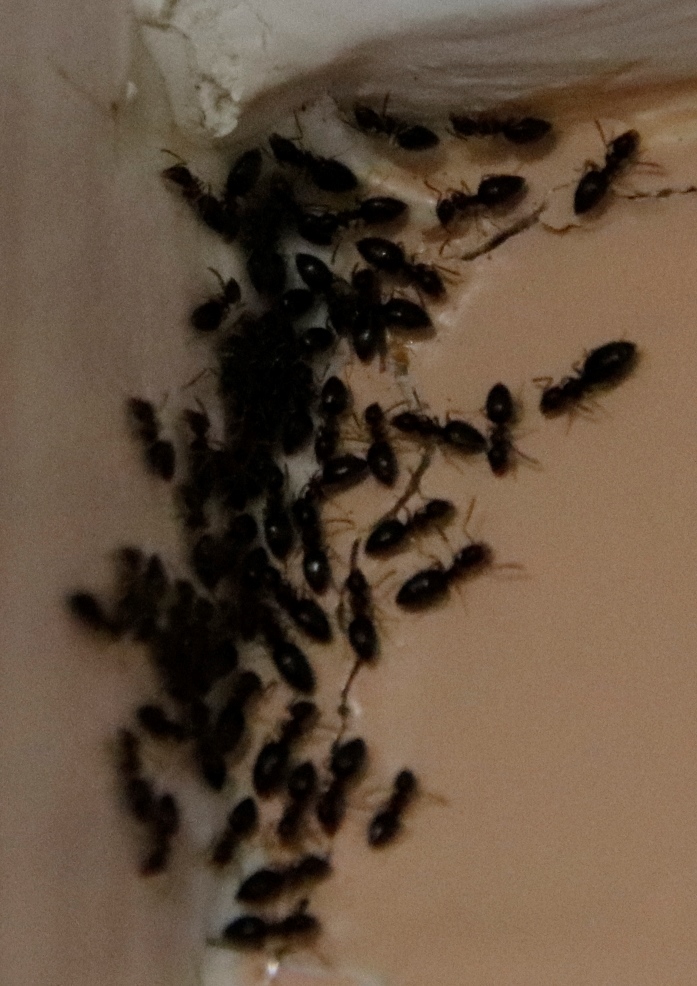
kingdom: Animalia
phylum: Arthropoda
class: Insecta
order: Hymenoptera
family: Formicidae
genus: Tapinoma
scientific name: Tapinoma pallipes
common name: Ant
